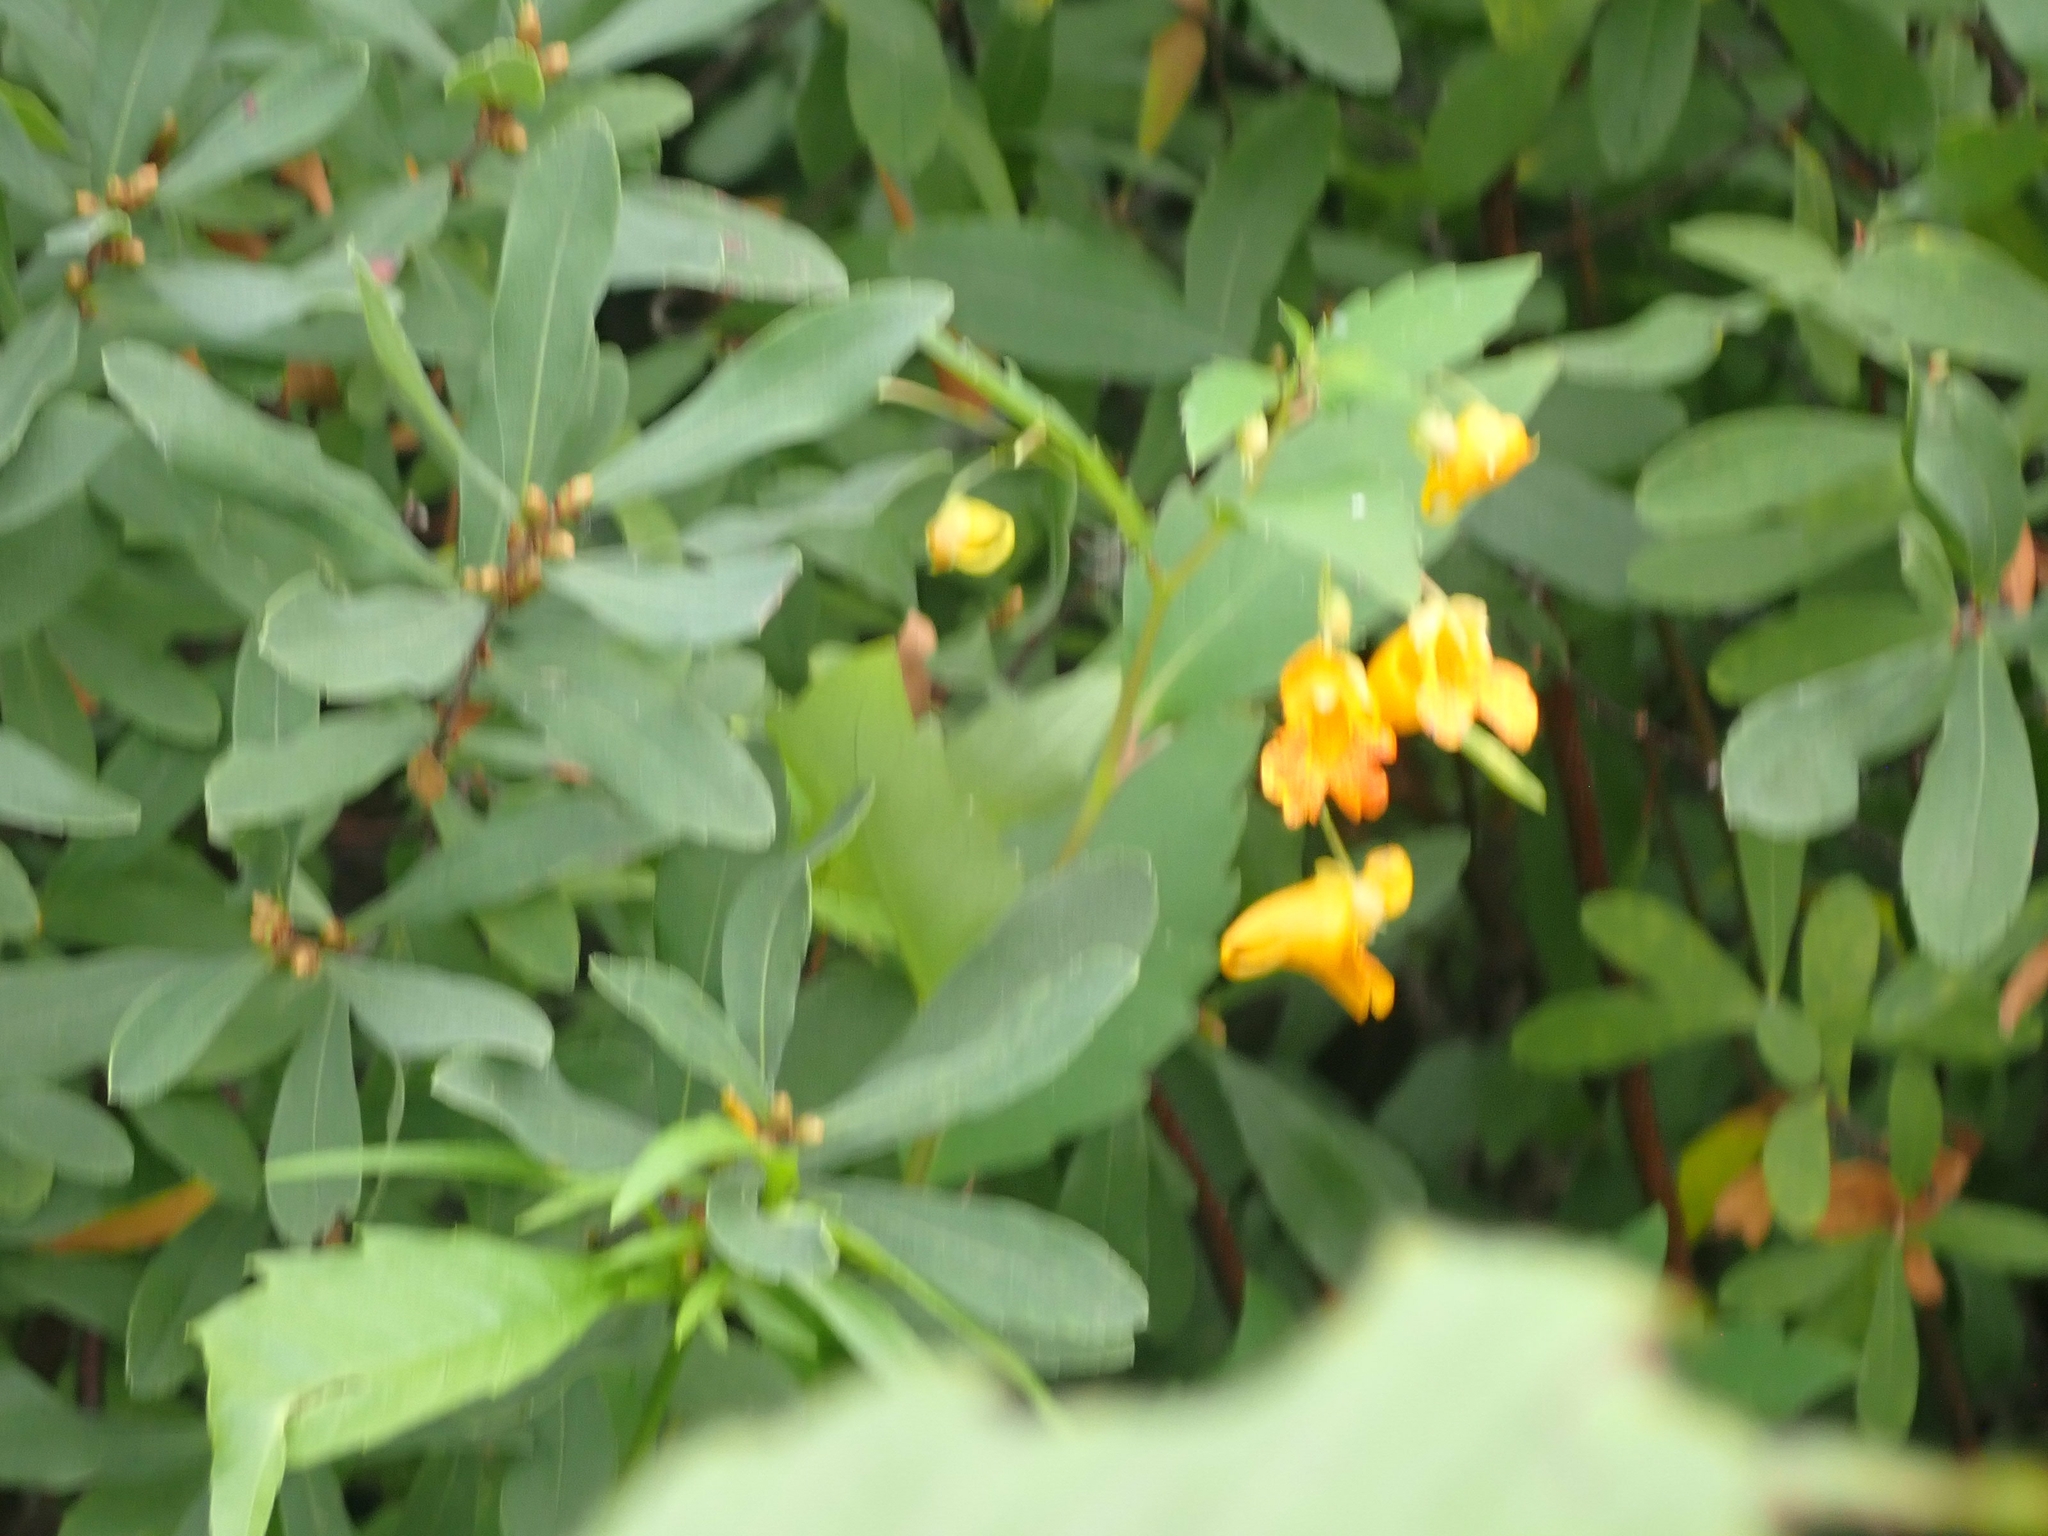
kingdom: Plantae
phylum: Tracheophyta
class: Magnoliopsida
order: Ericales
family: Balsaminaceae
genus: Impatiens
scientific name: Impatiens capensis
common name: Orange balsam
